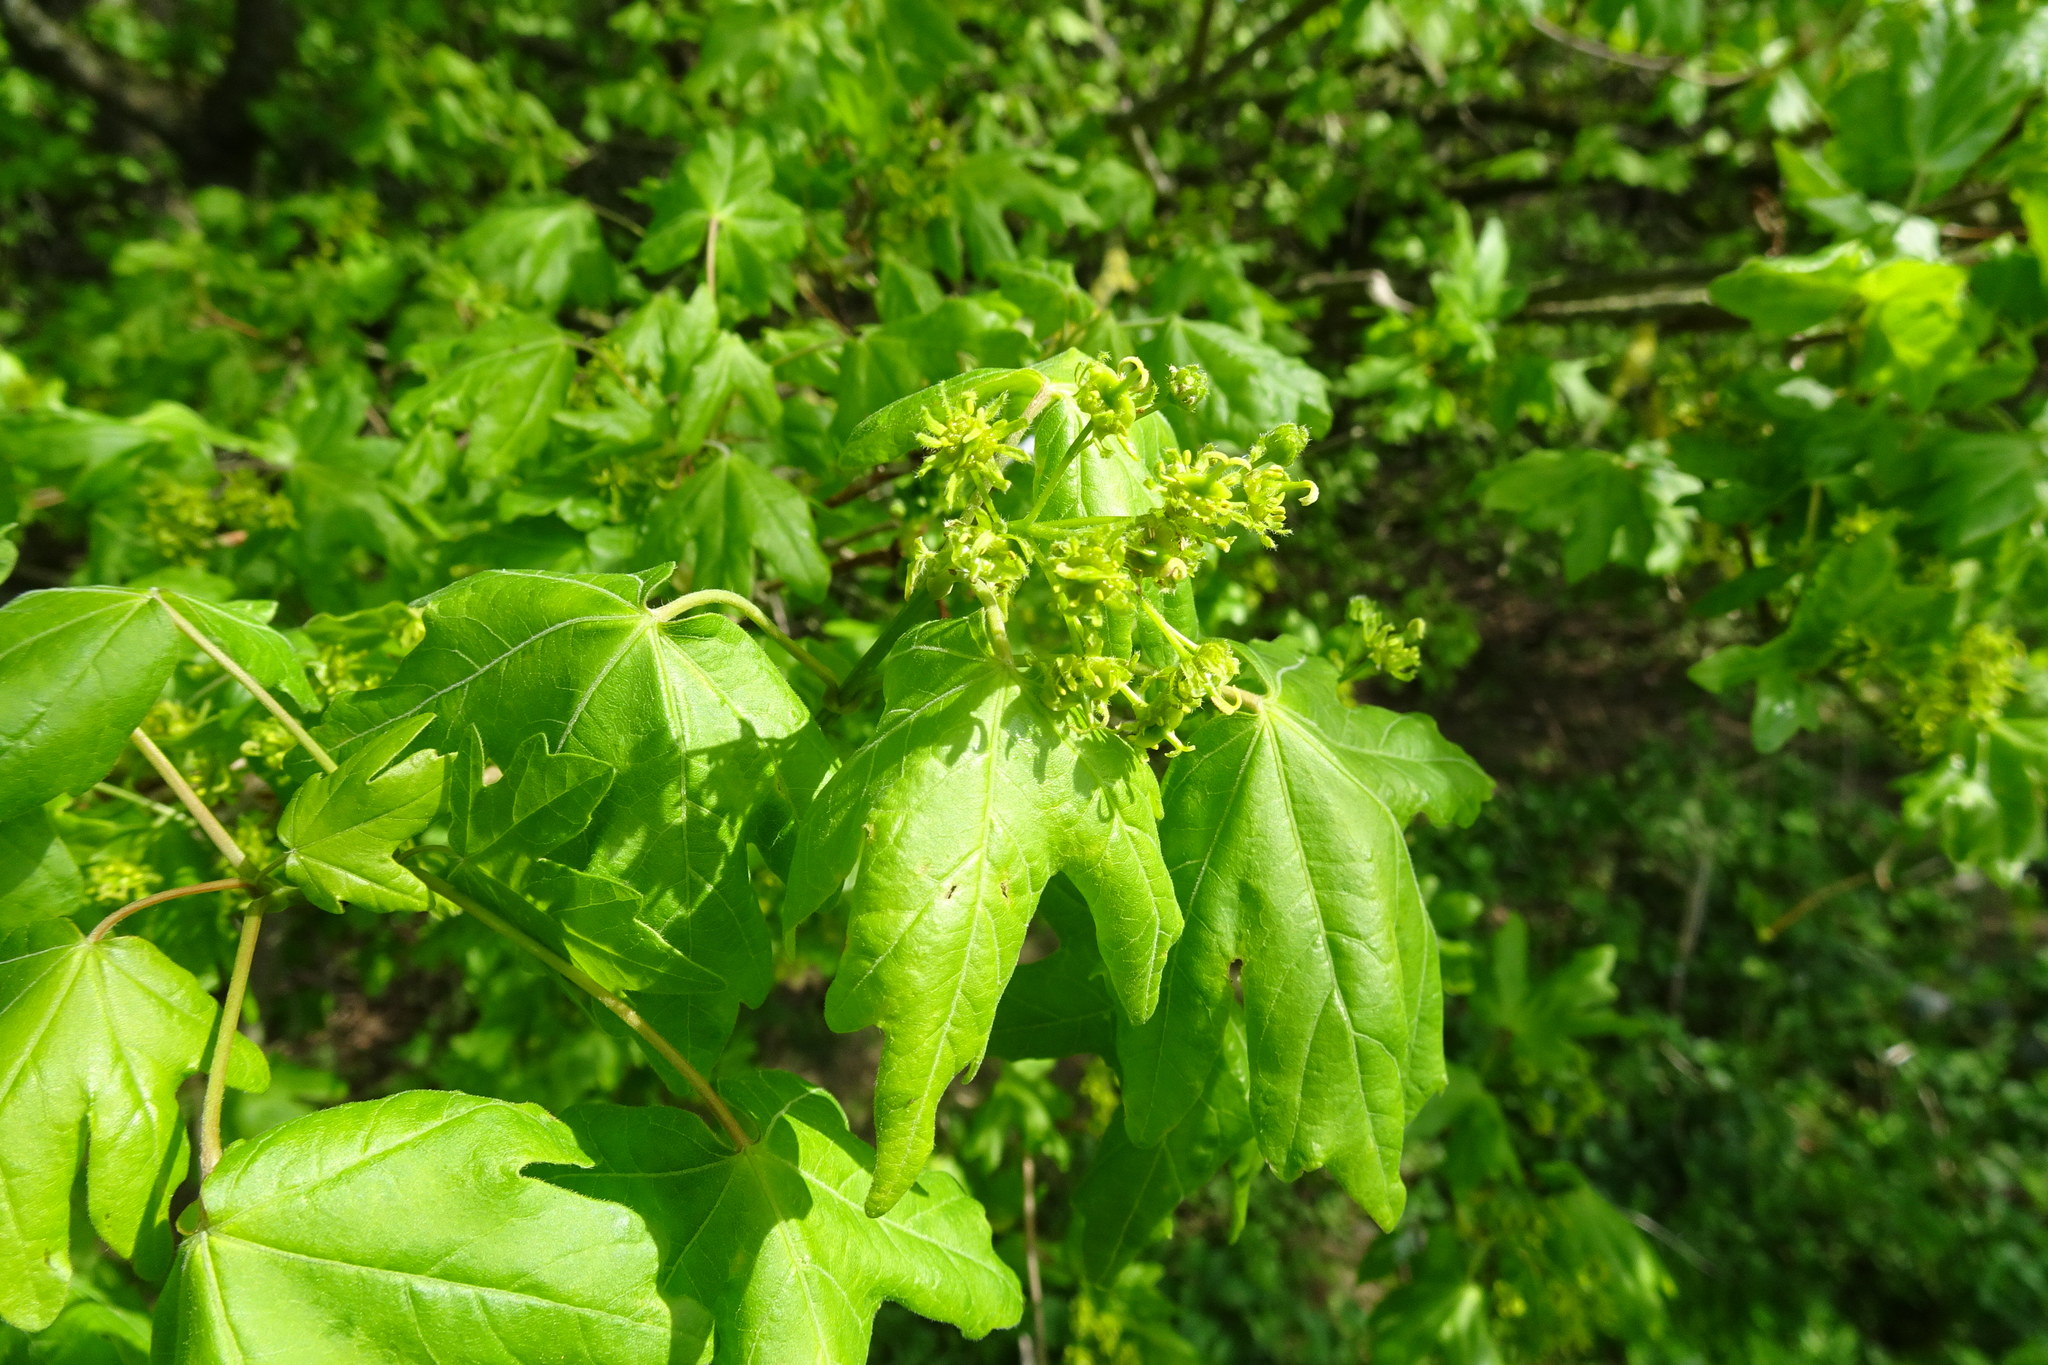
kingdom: Plantae
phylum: Tracheophyta
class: Magnoliopsida
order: Sapindales
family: Sapindaceae
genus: Acer
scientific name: Acer campestre
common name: Field maple
